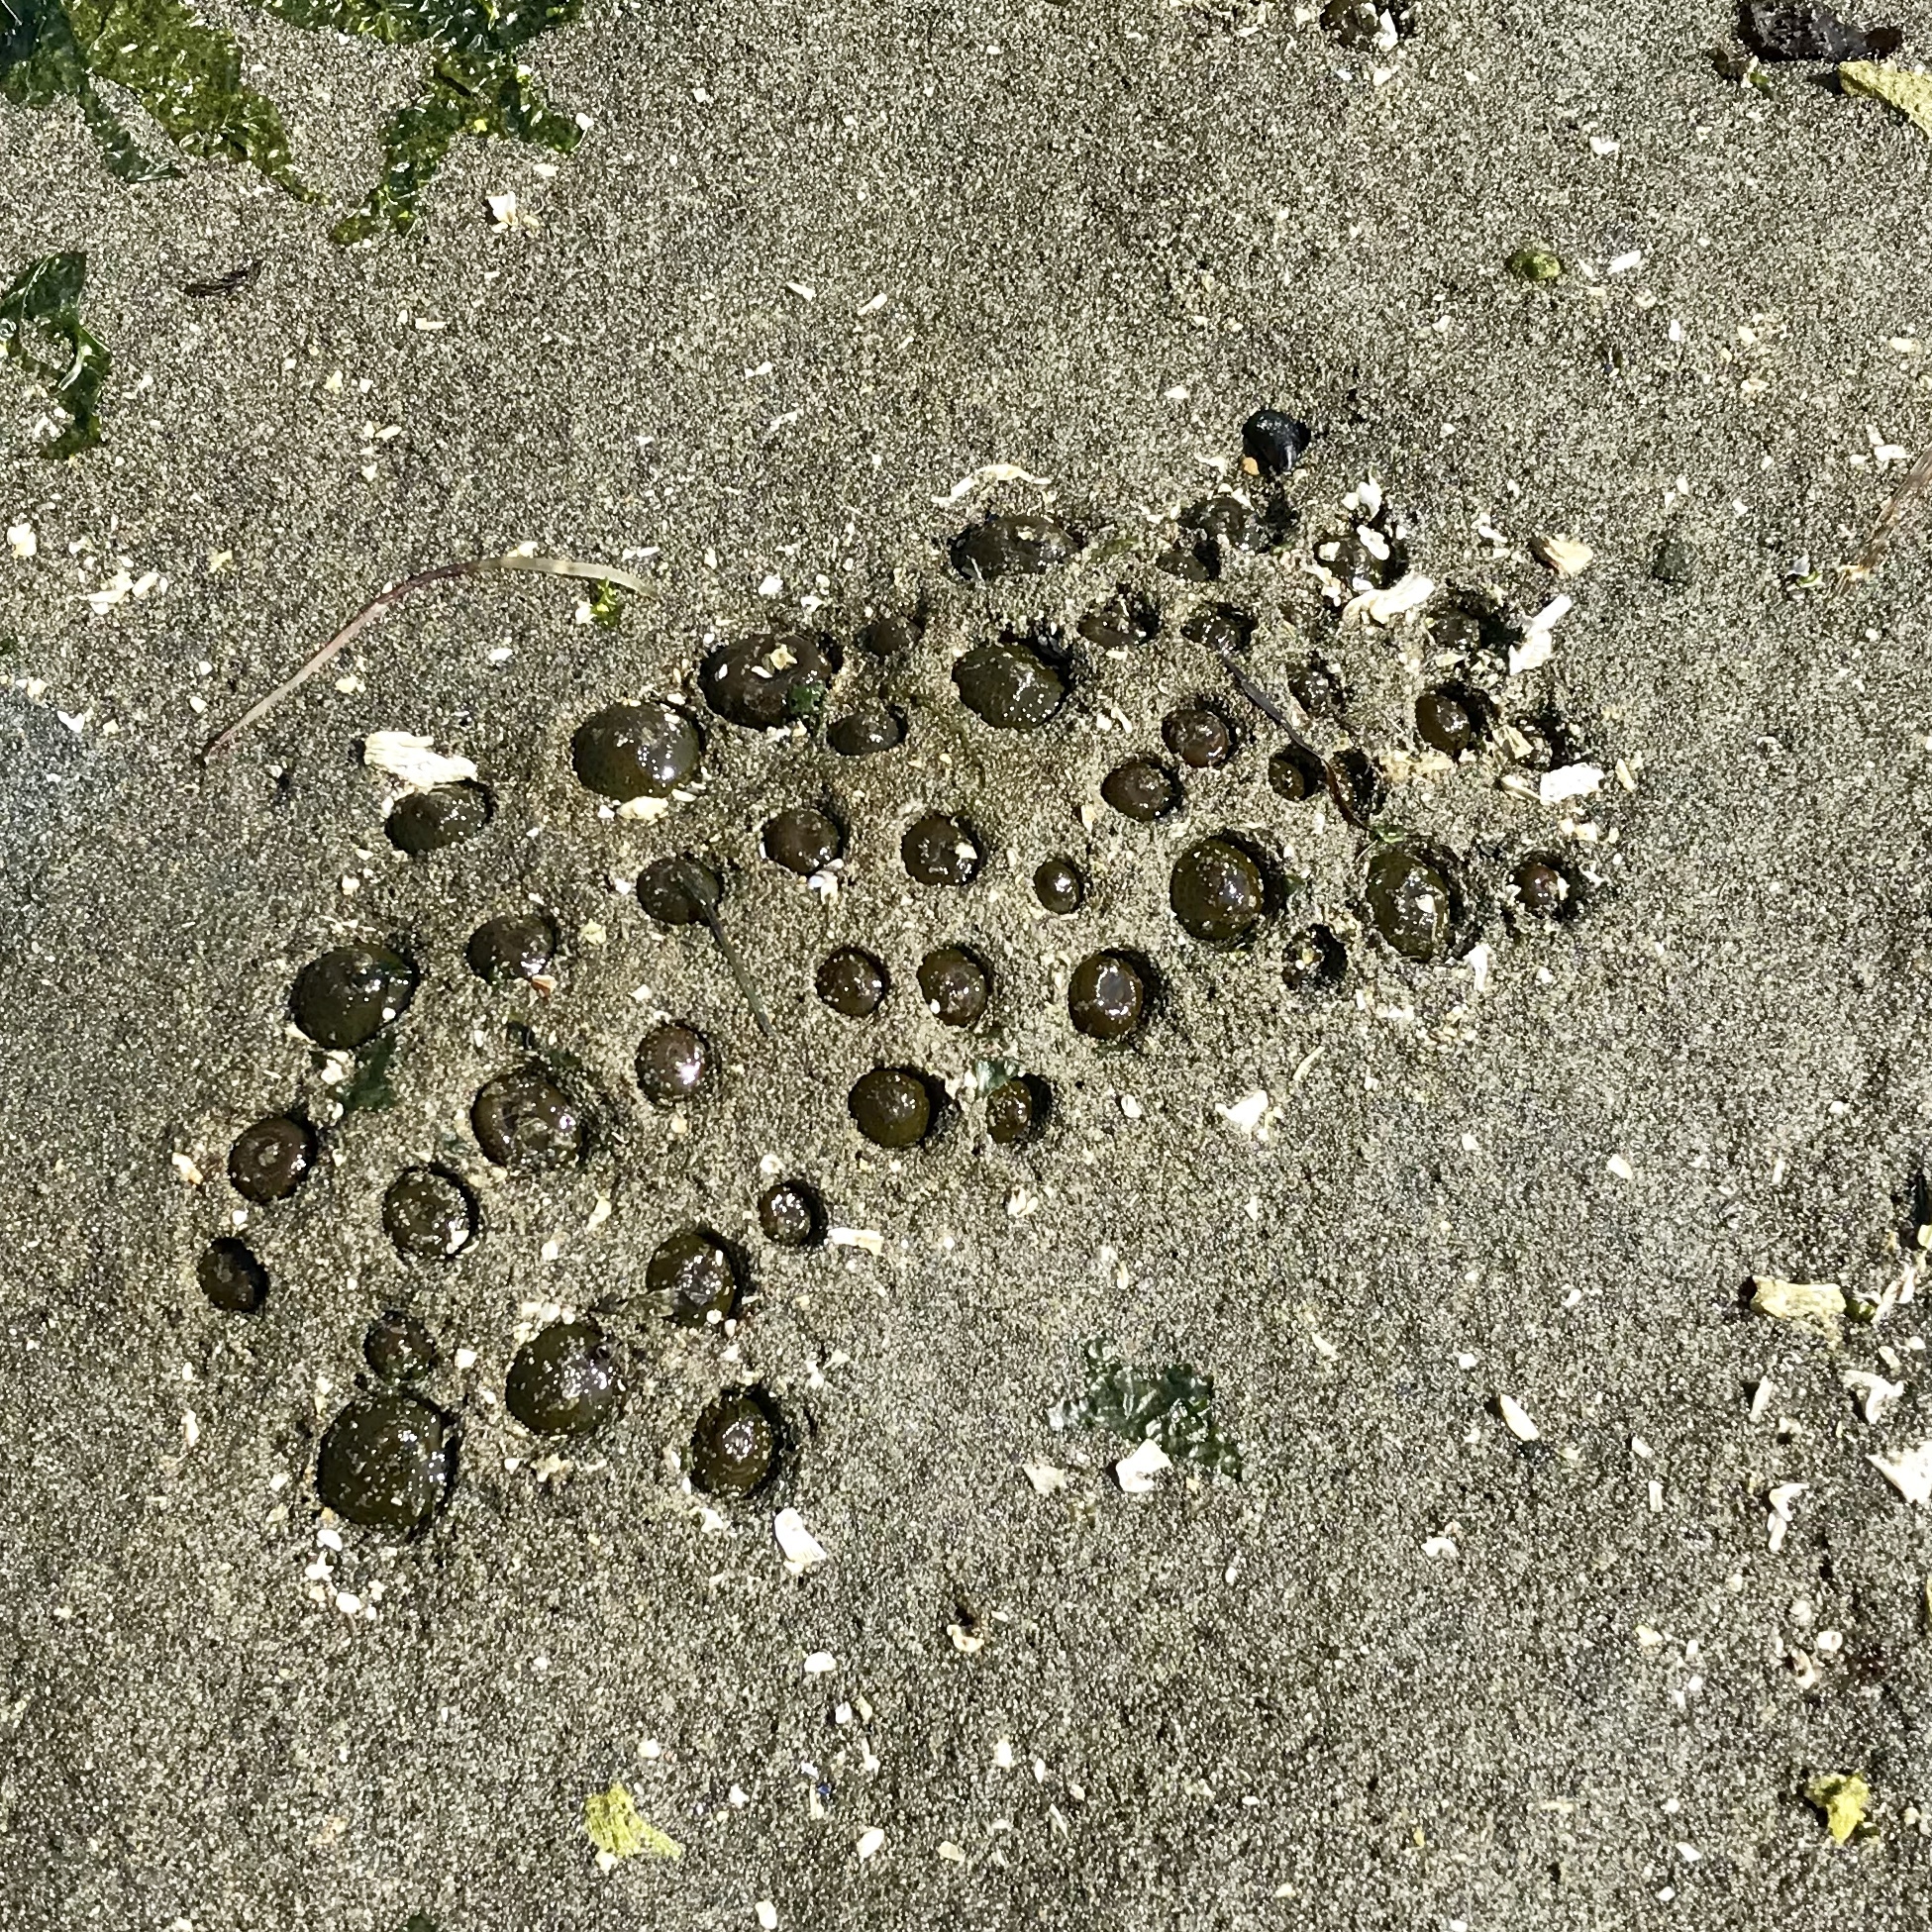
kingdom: Animalia
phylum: Cnidaria
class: Anthozoa
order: Actiniaria
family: Actiniidae
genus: Anthopleura
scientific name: Anthopleura elegantissima
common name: Clonal anemone
